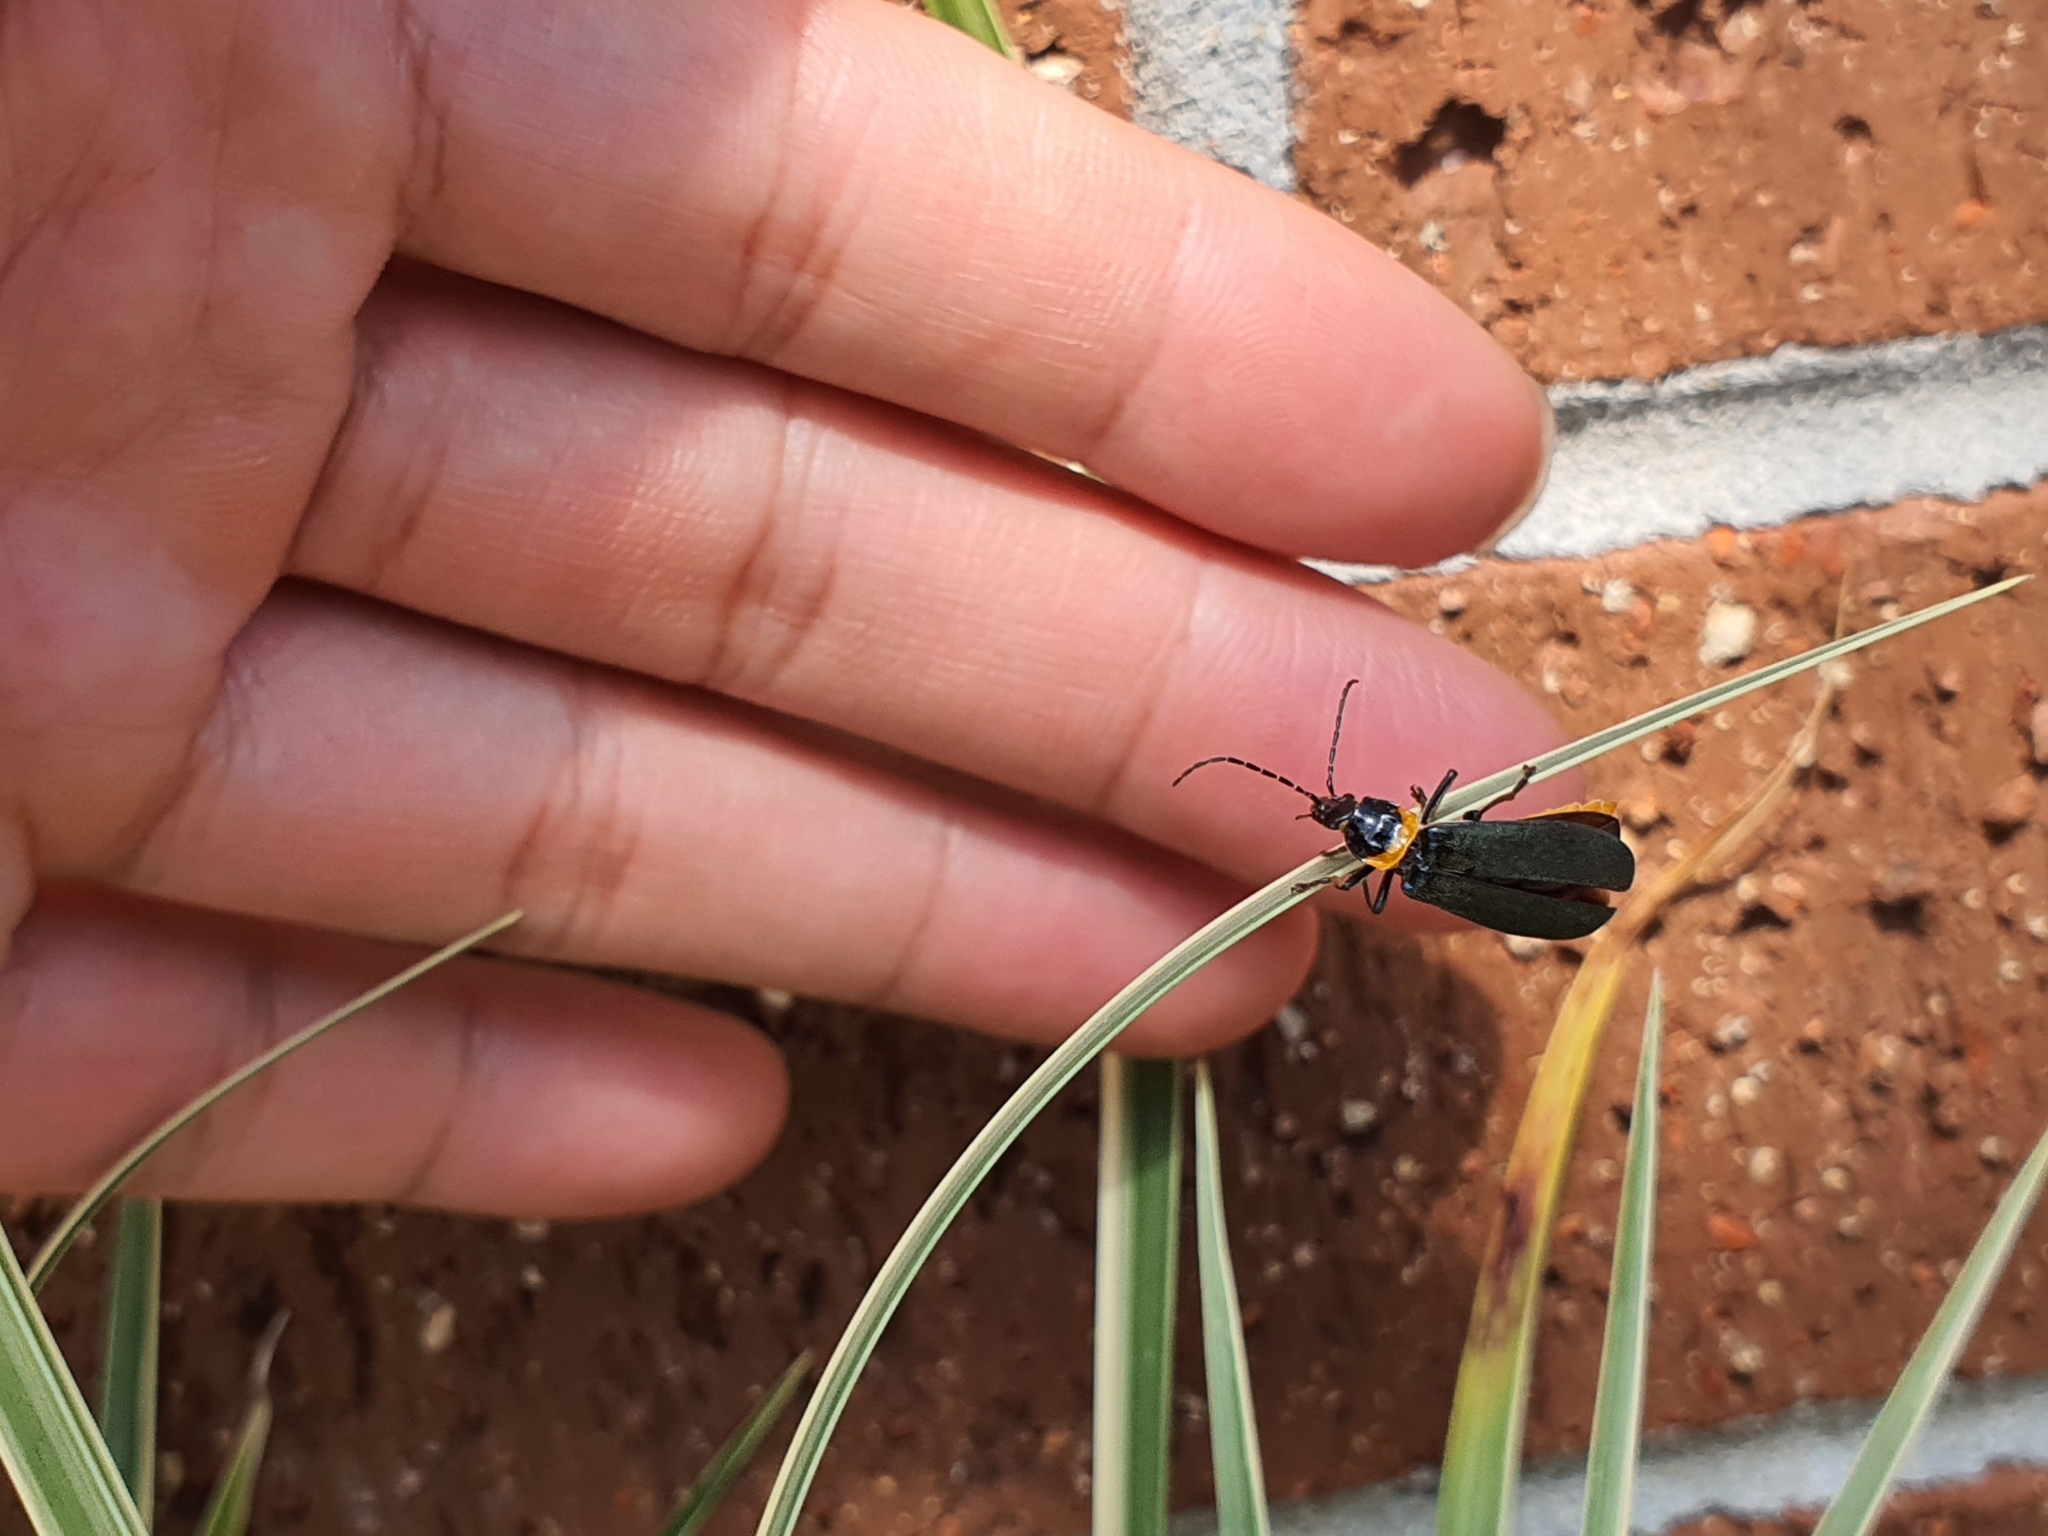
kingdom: Animalia
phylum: Arthropoda
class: Insecta
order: Coleoptera
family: Cantharidae
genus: Chauliognathus
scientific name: Chauliognathus
